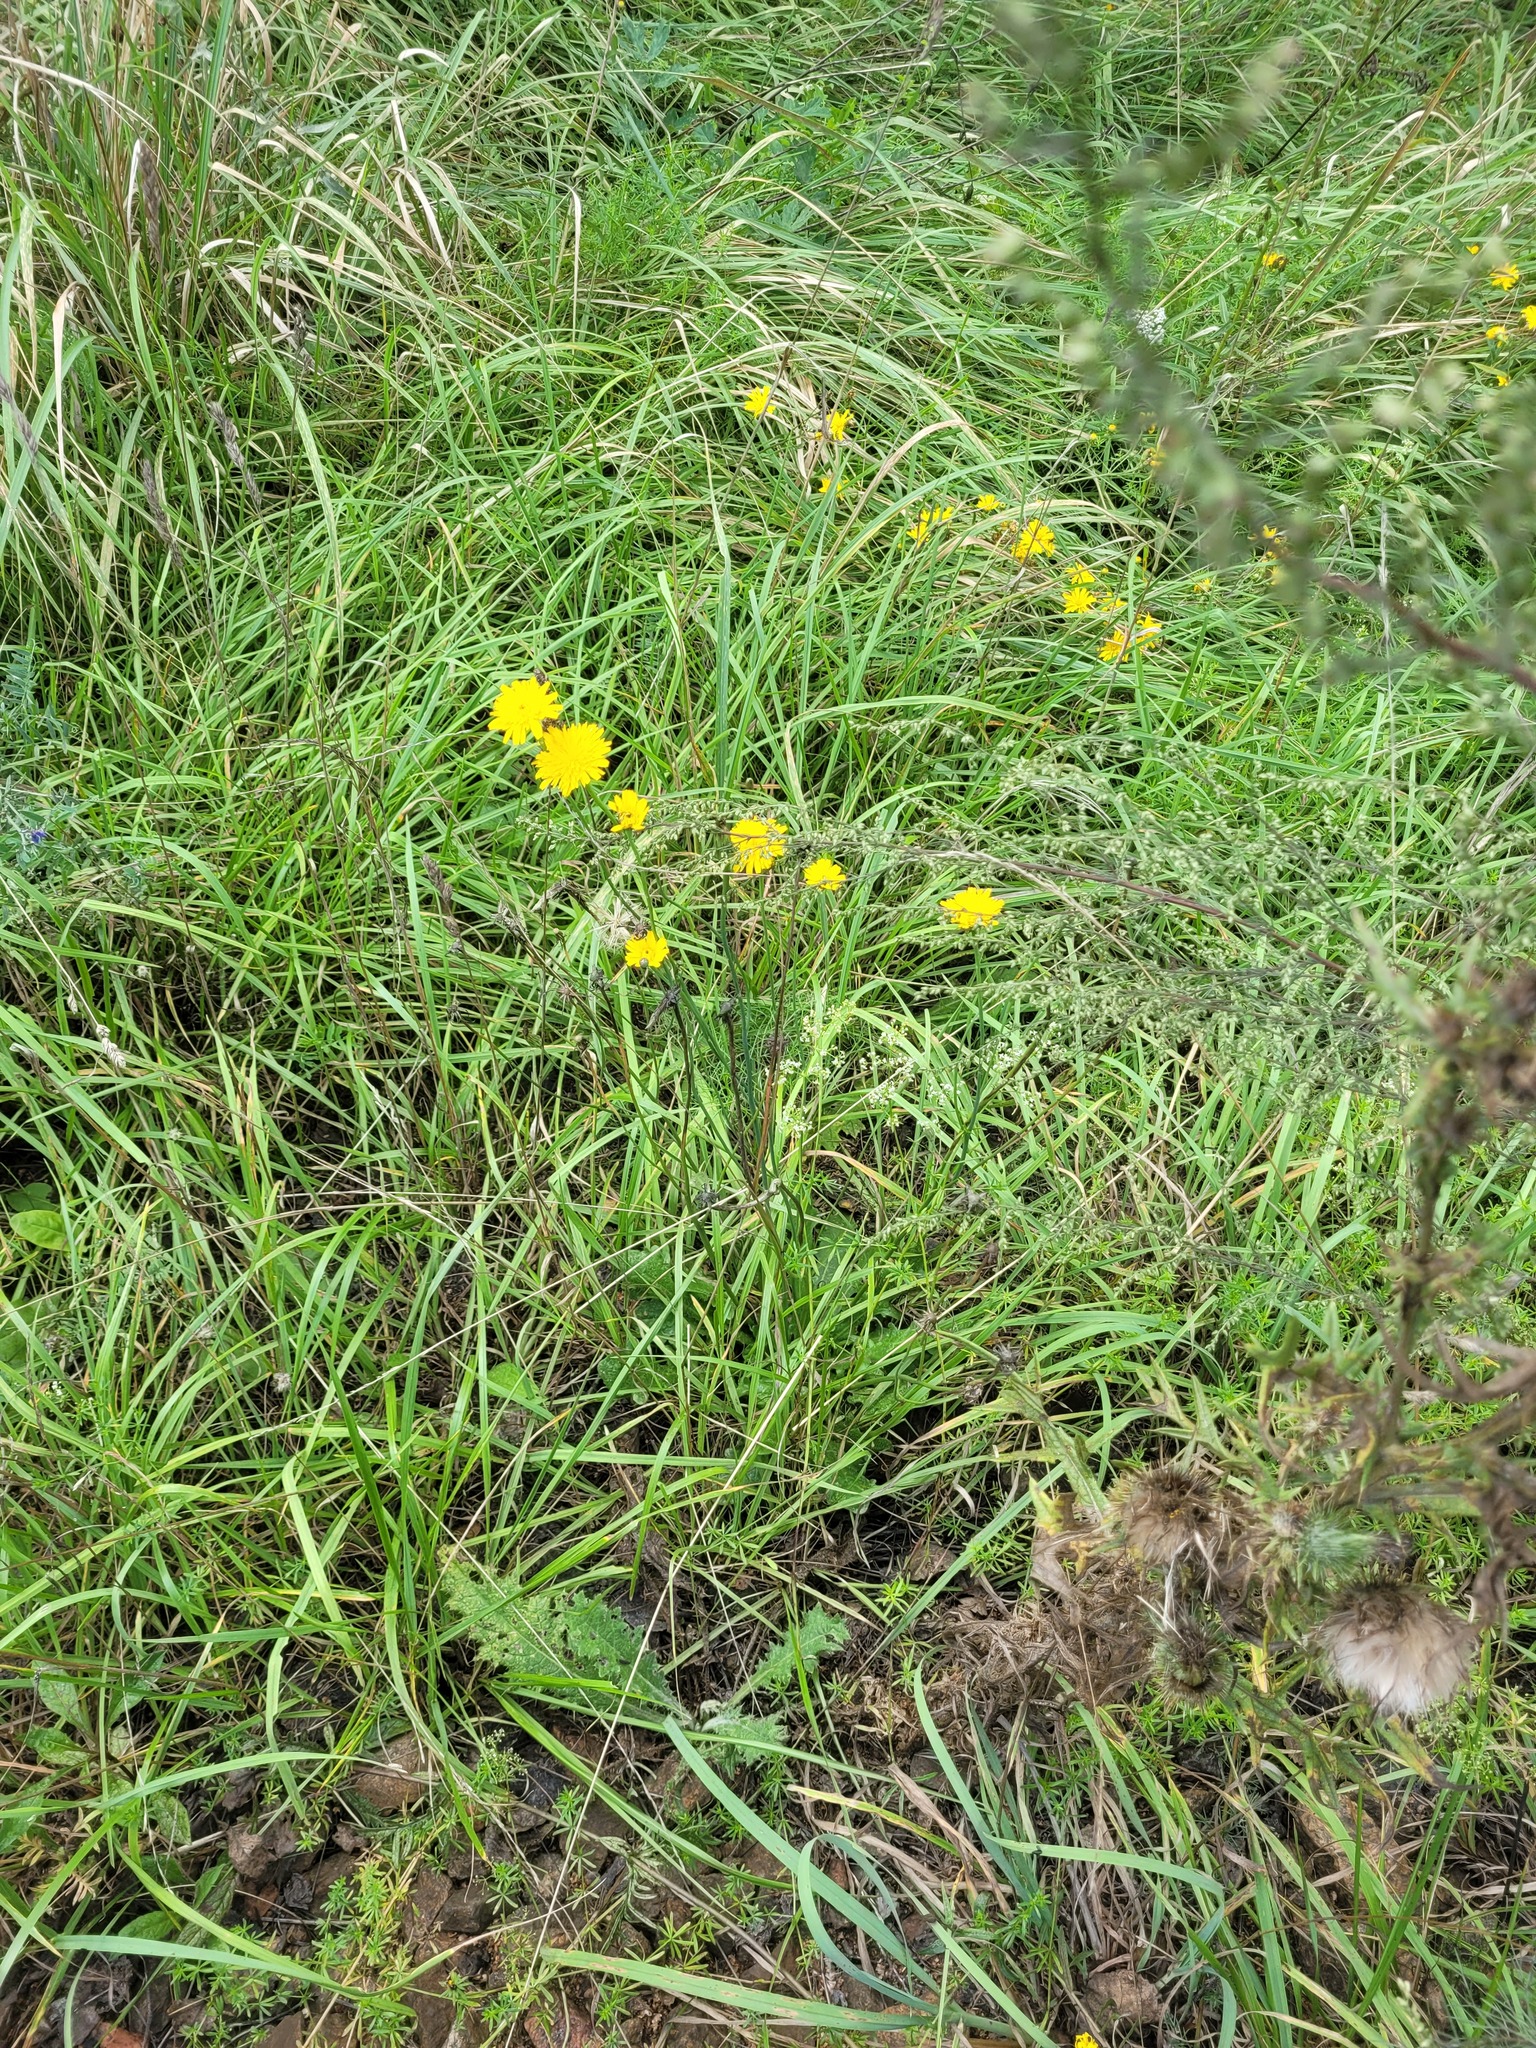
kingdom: Plantae
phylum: Tracheophyta
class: Magnoliopsida
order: Asterales
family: Asteraceae
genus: Hypochaeris
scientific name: Hypochaeris radicata
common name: Flatweed
